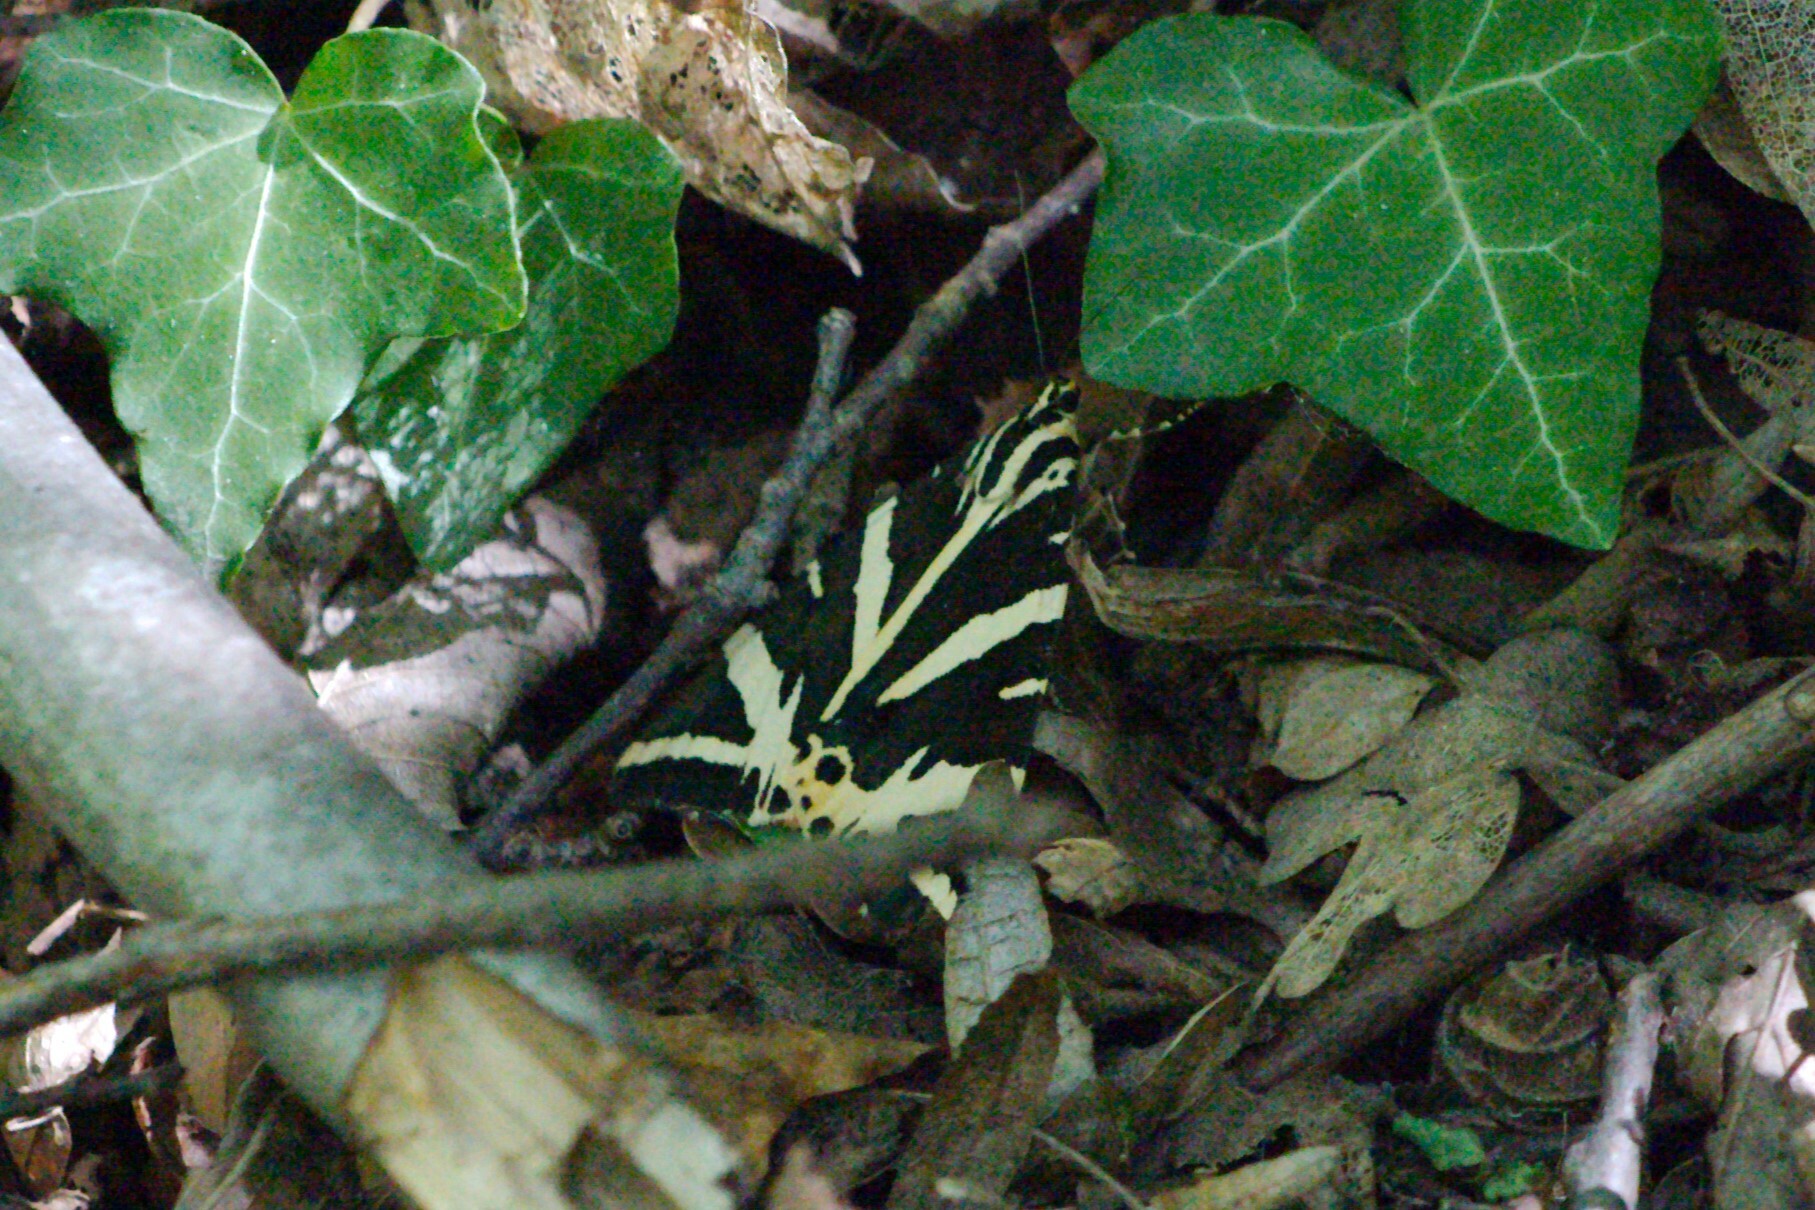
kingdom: Animalia
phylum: Arthropoda
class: Insecta
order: Lepidoptera
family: Erebidae
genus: Euplagia
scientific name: Euplagia quadripunctaria
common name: Jersey tiger
